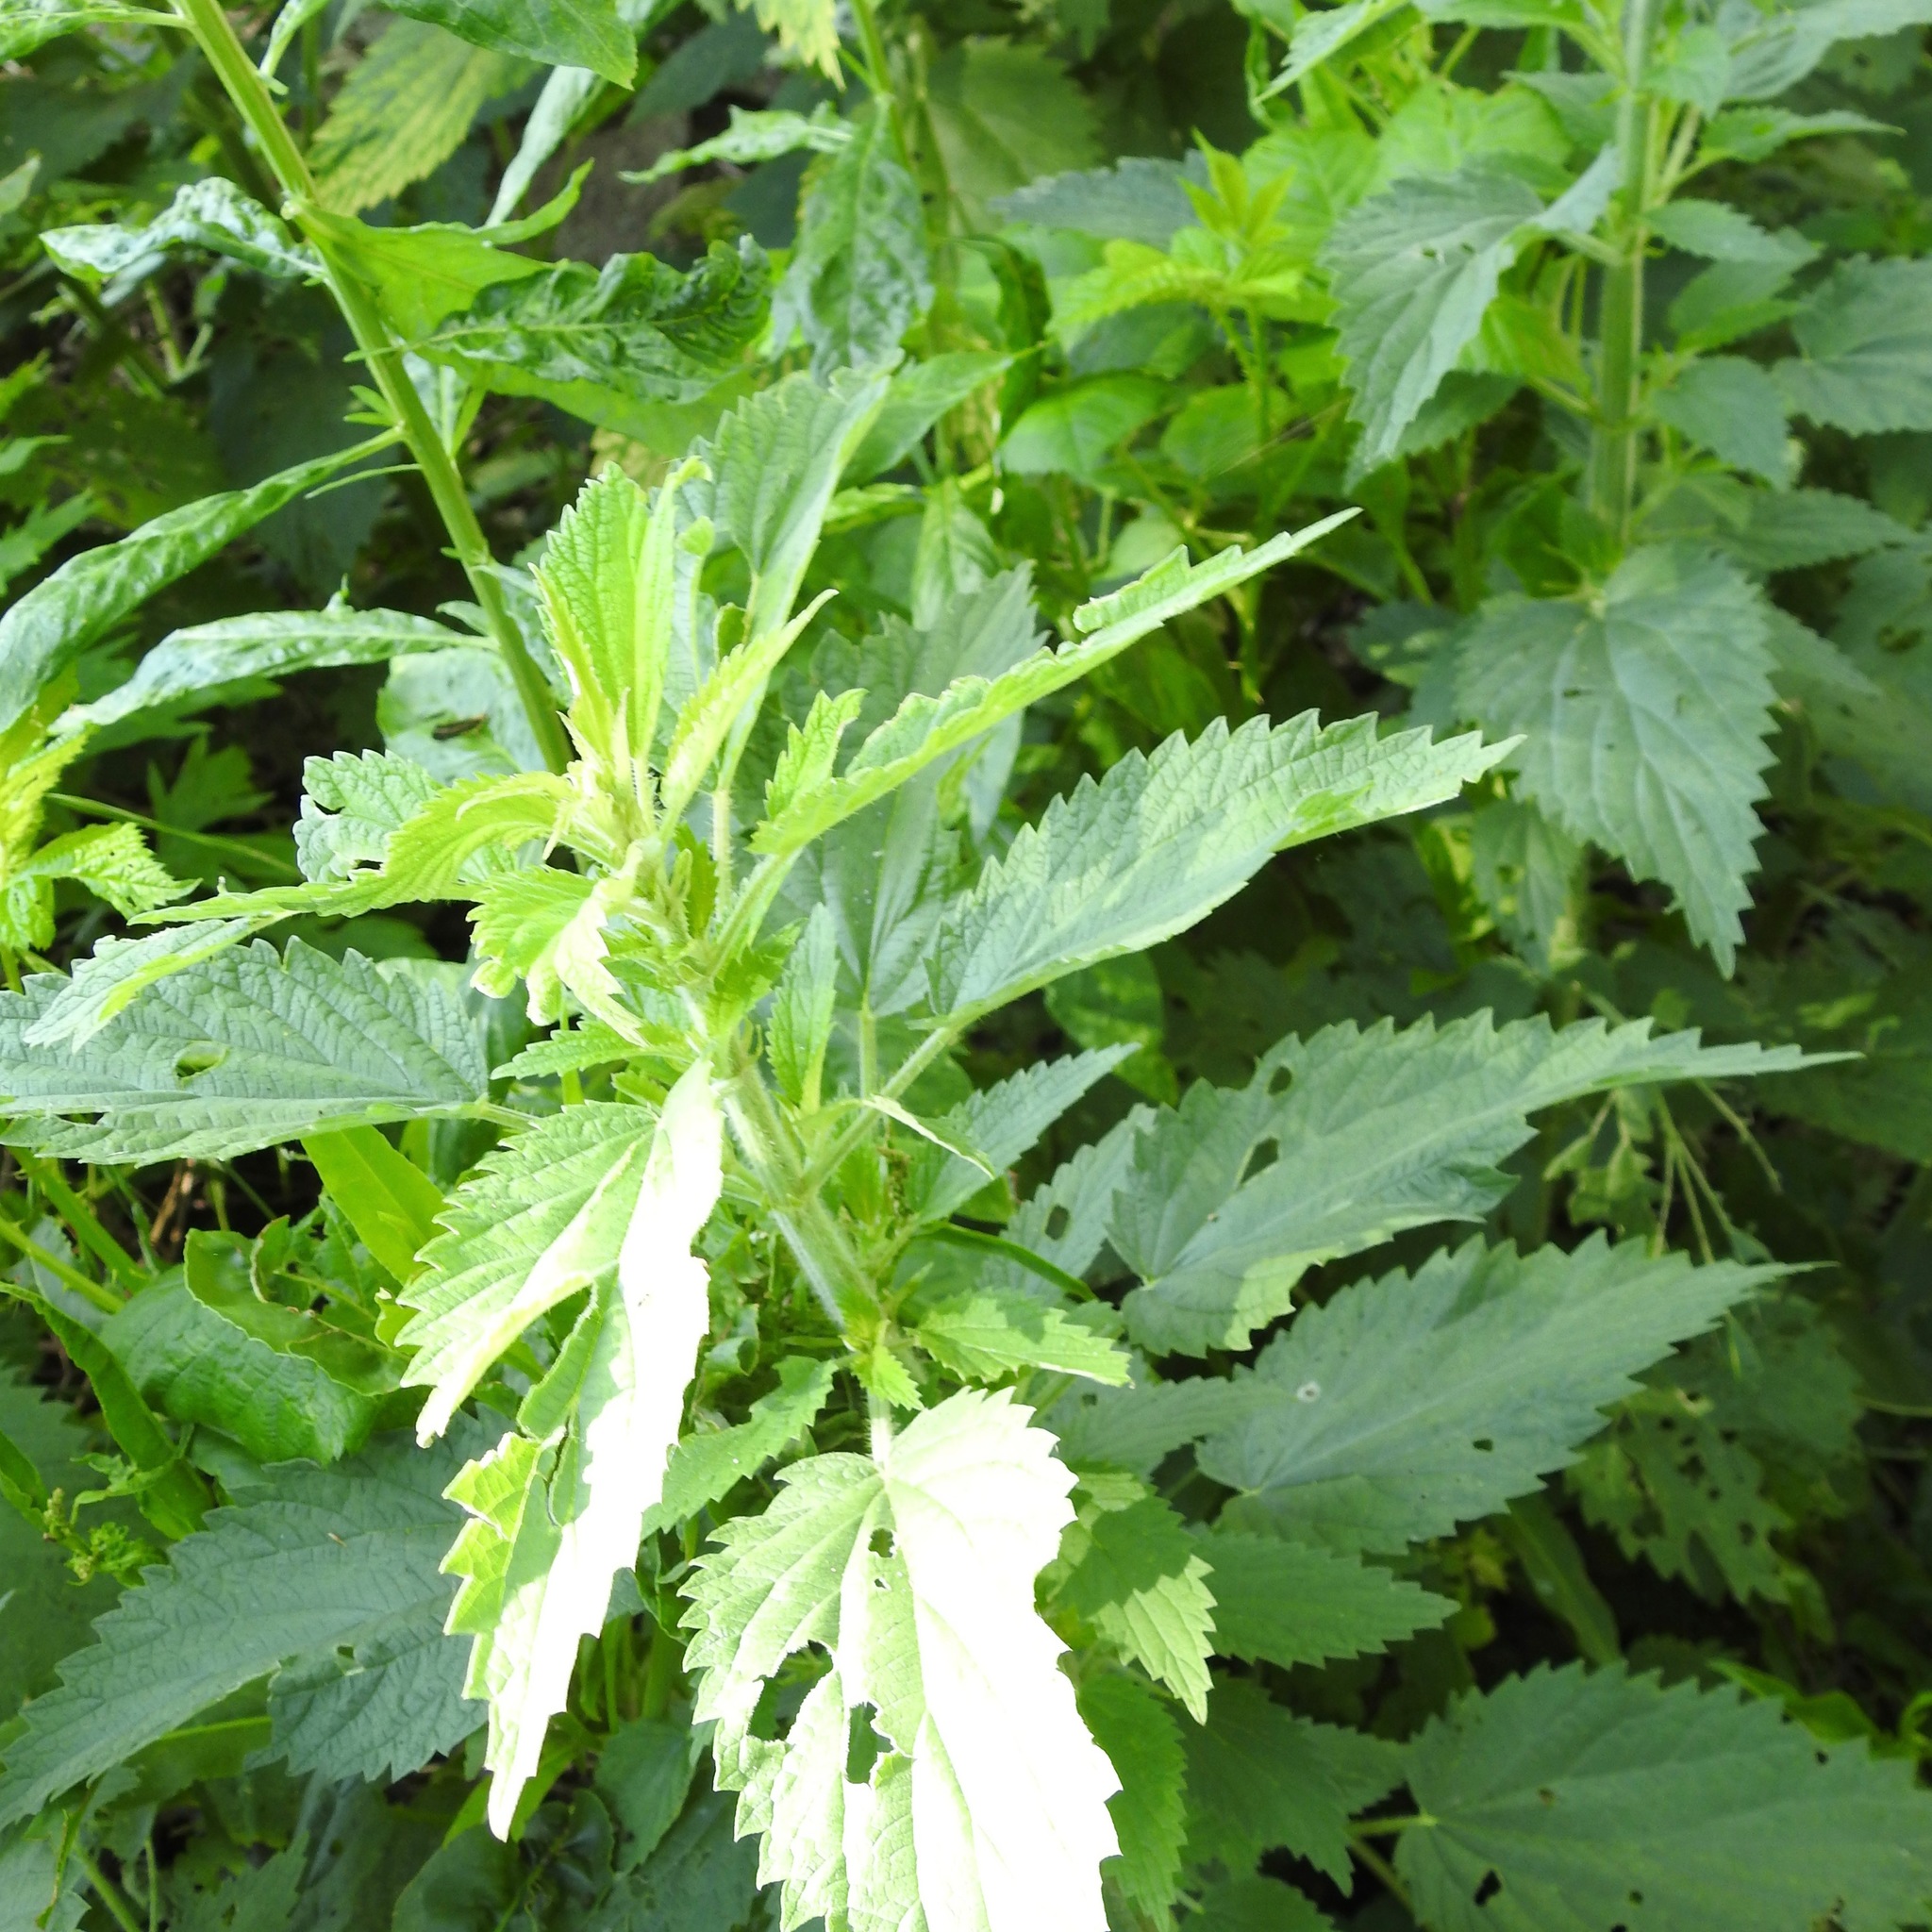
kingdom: Plantae
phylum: Tracheophyta
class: Magnoliopsida
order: Rosales
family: Urticaceae
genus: Urtica
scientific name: Urtica dioica
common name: Common nettle
